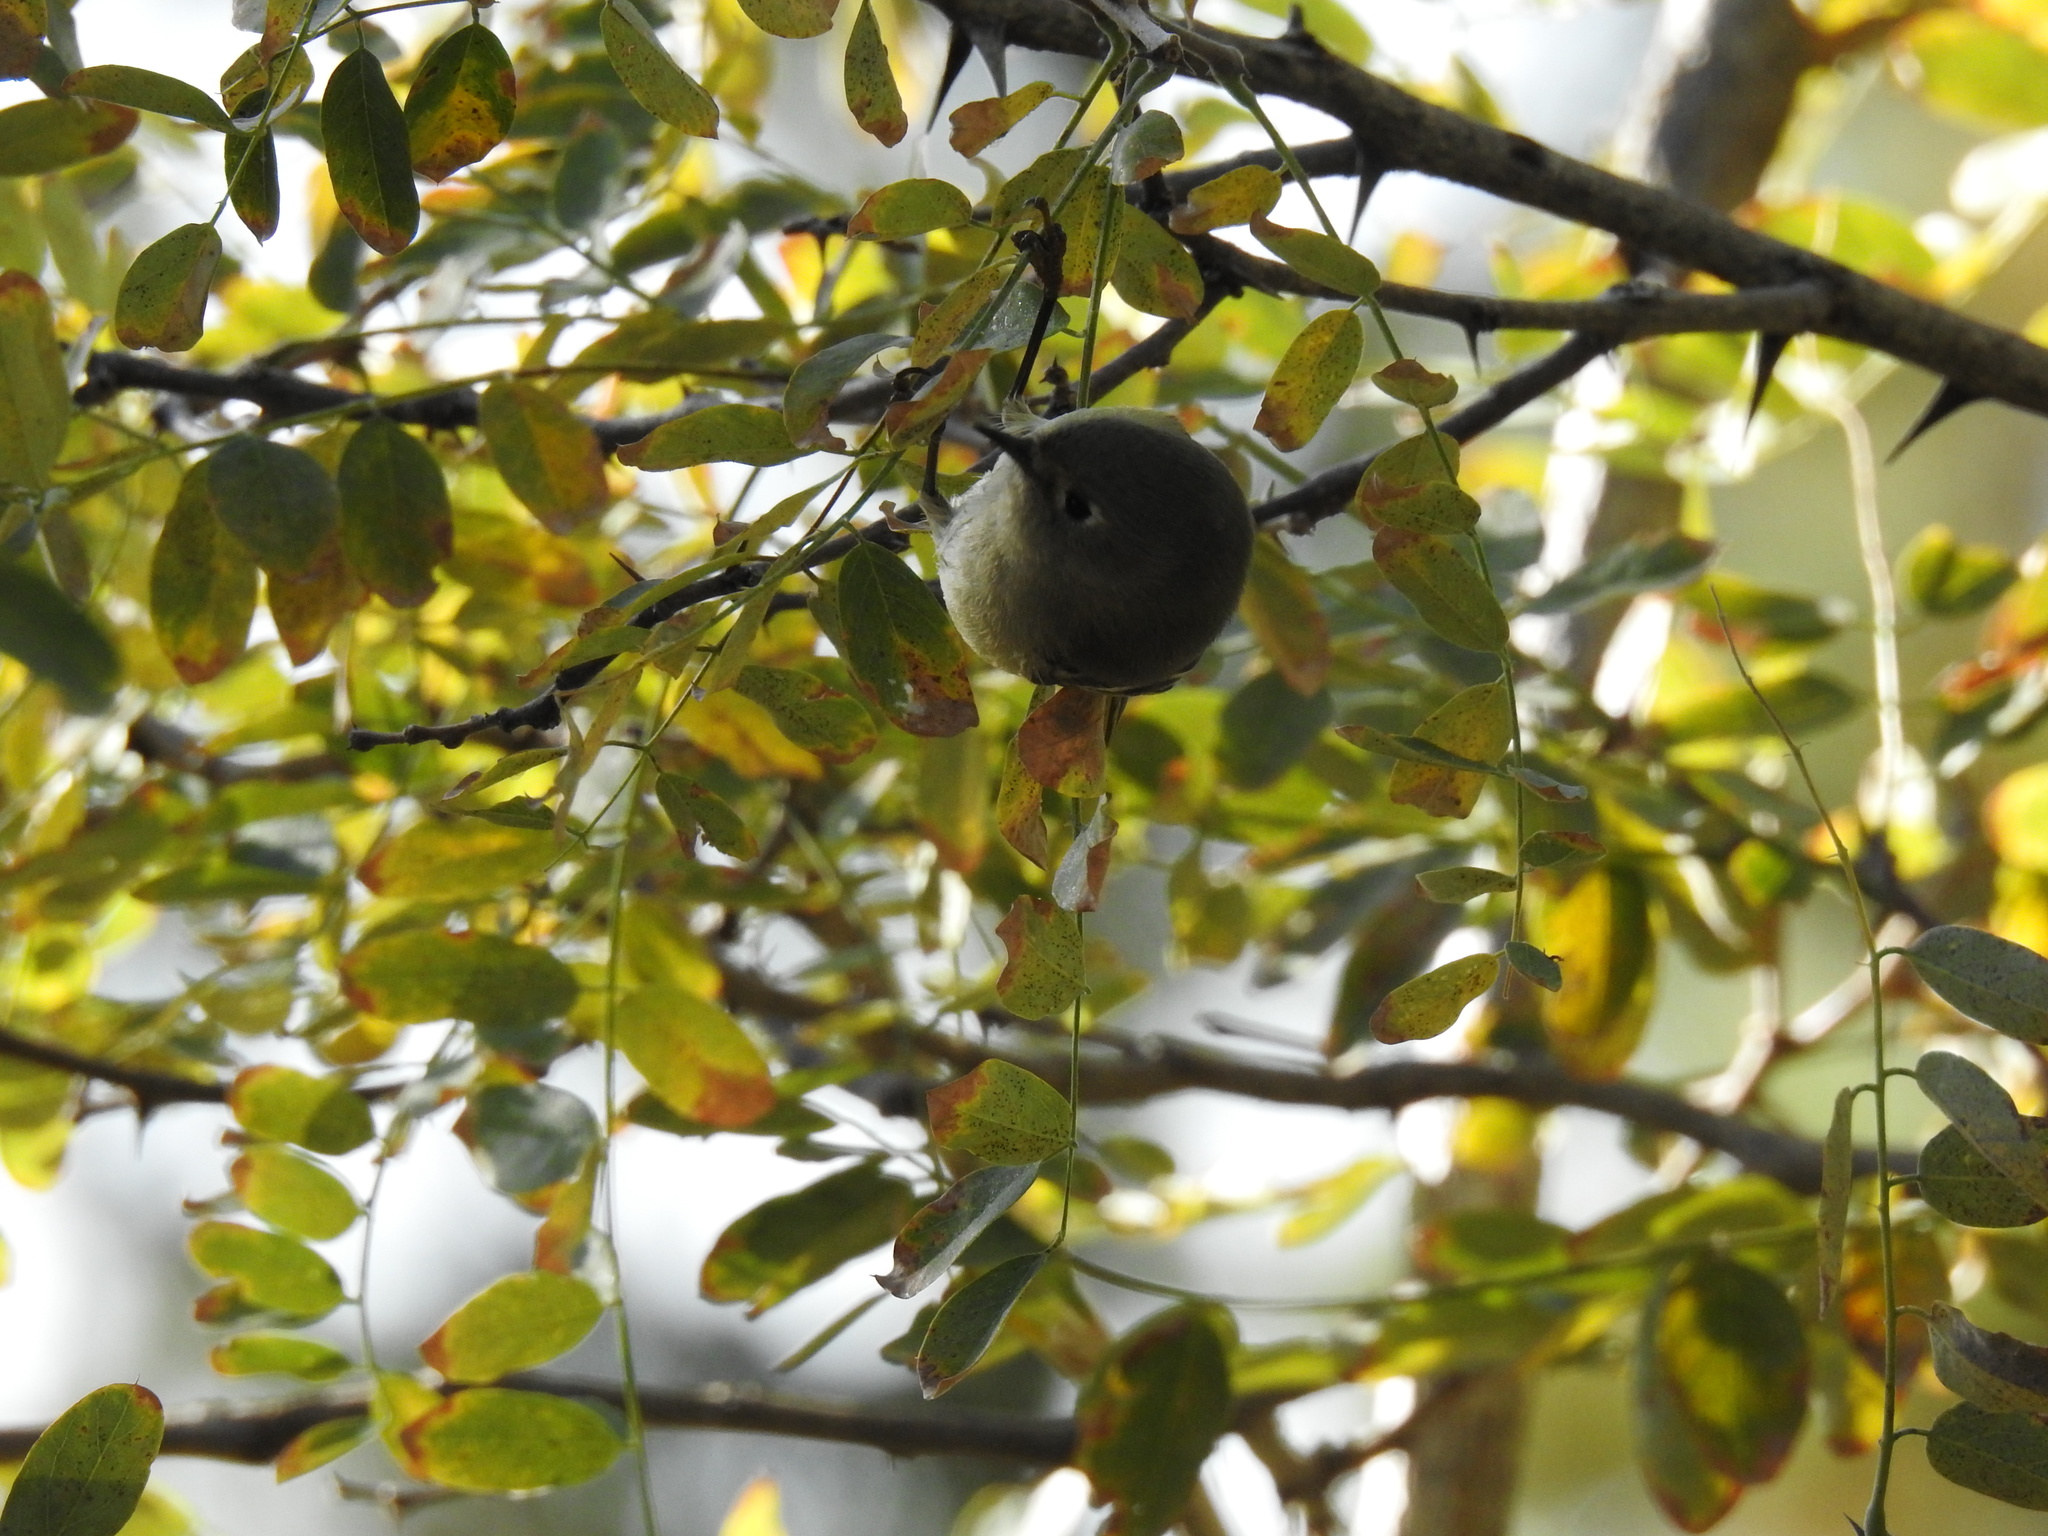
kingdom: Animalia
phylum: Chordata
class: Aves
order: Passeriformes
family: Regulidae
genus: Regulus
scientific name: Regulus calendula
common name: Ruby-crowned kinglet
